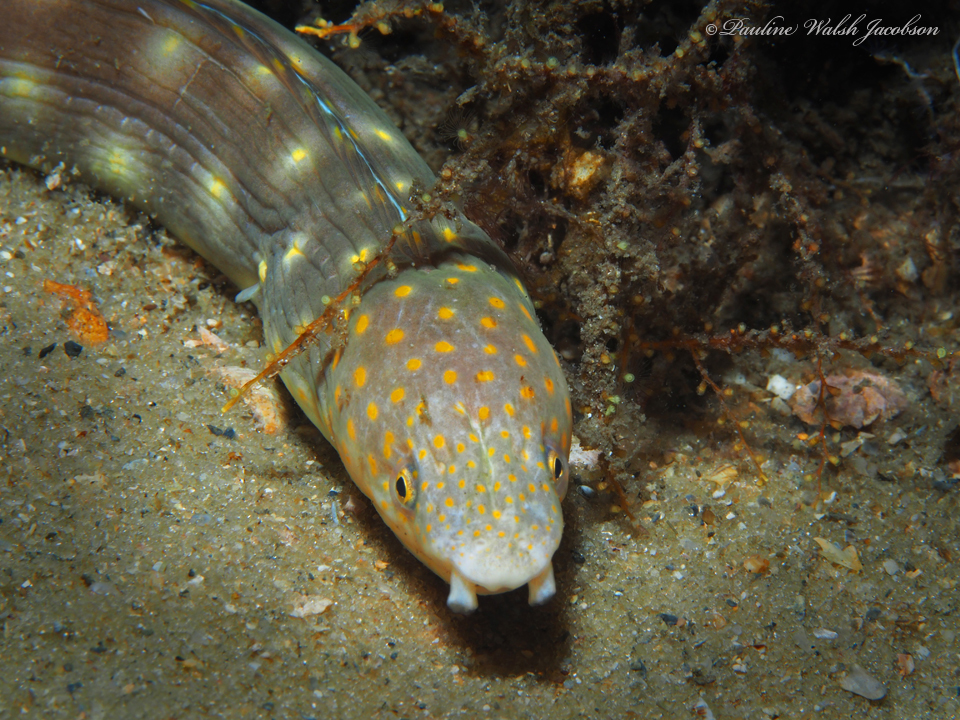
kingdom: Animalia
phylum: Chordata
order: Anguilliformes
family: Ophichthidae
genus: Myrichthys
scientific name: Myrichthys breviceps
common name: Sharptail eel
